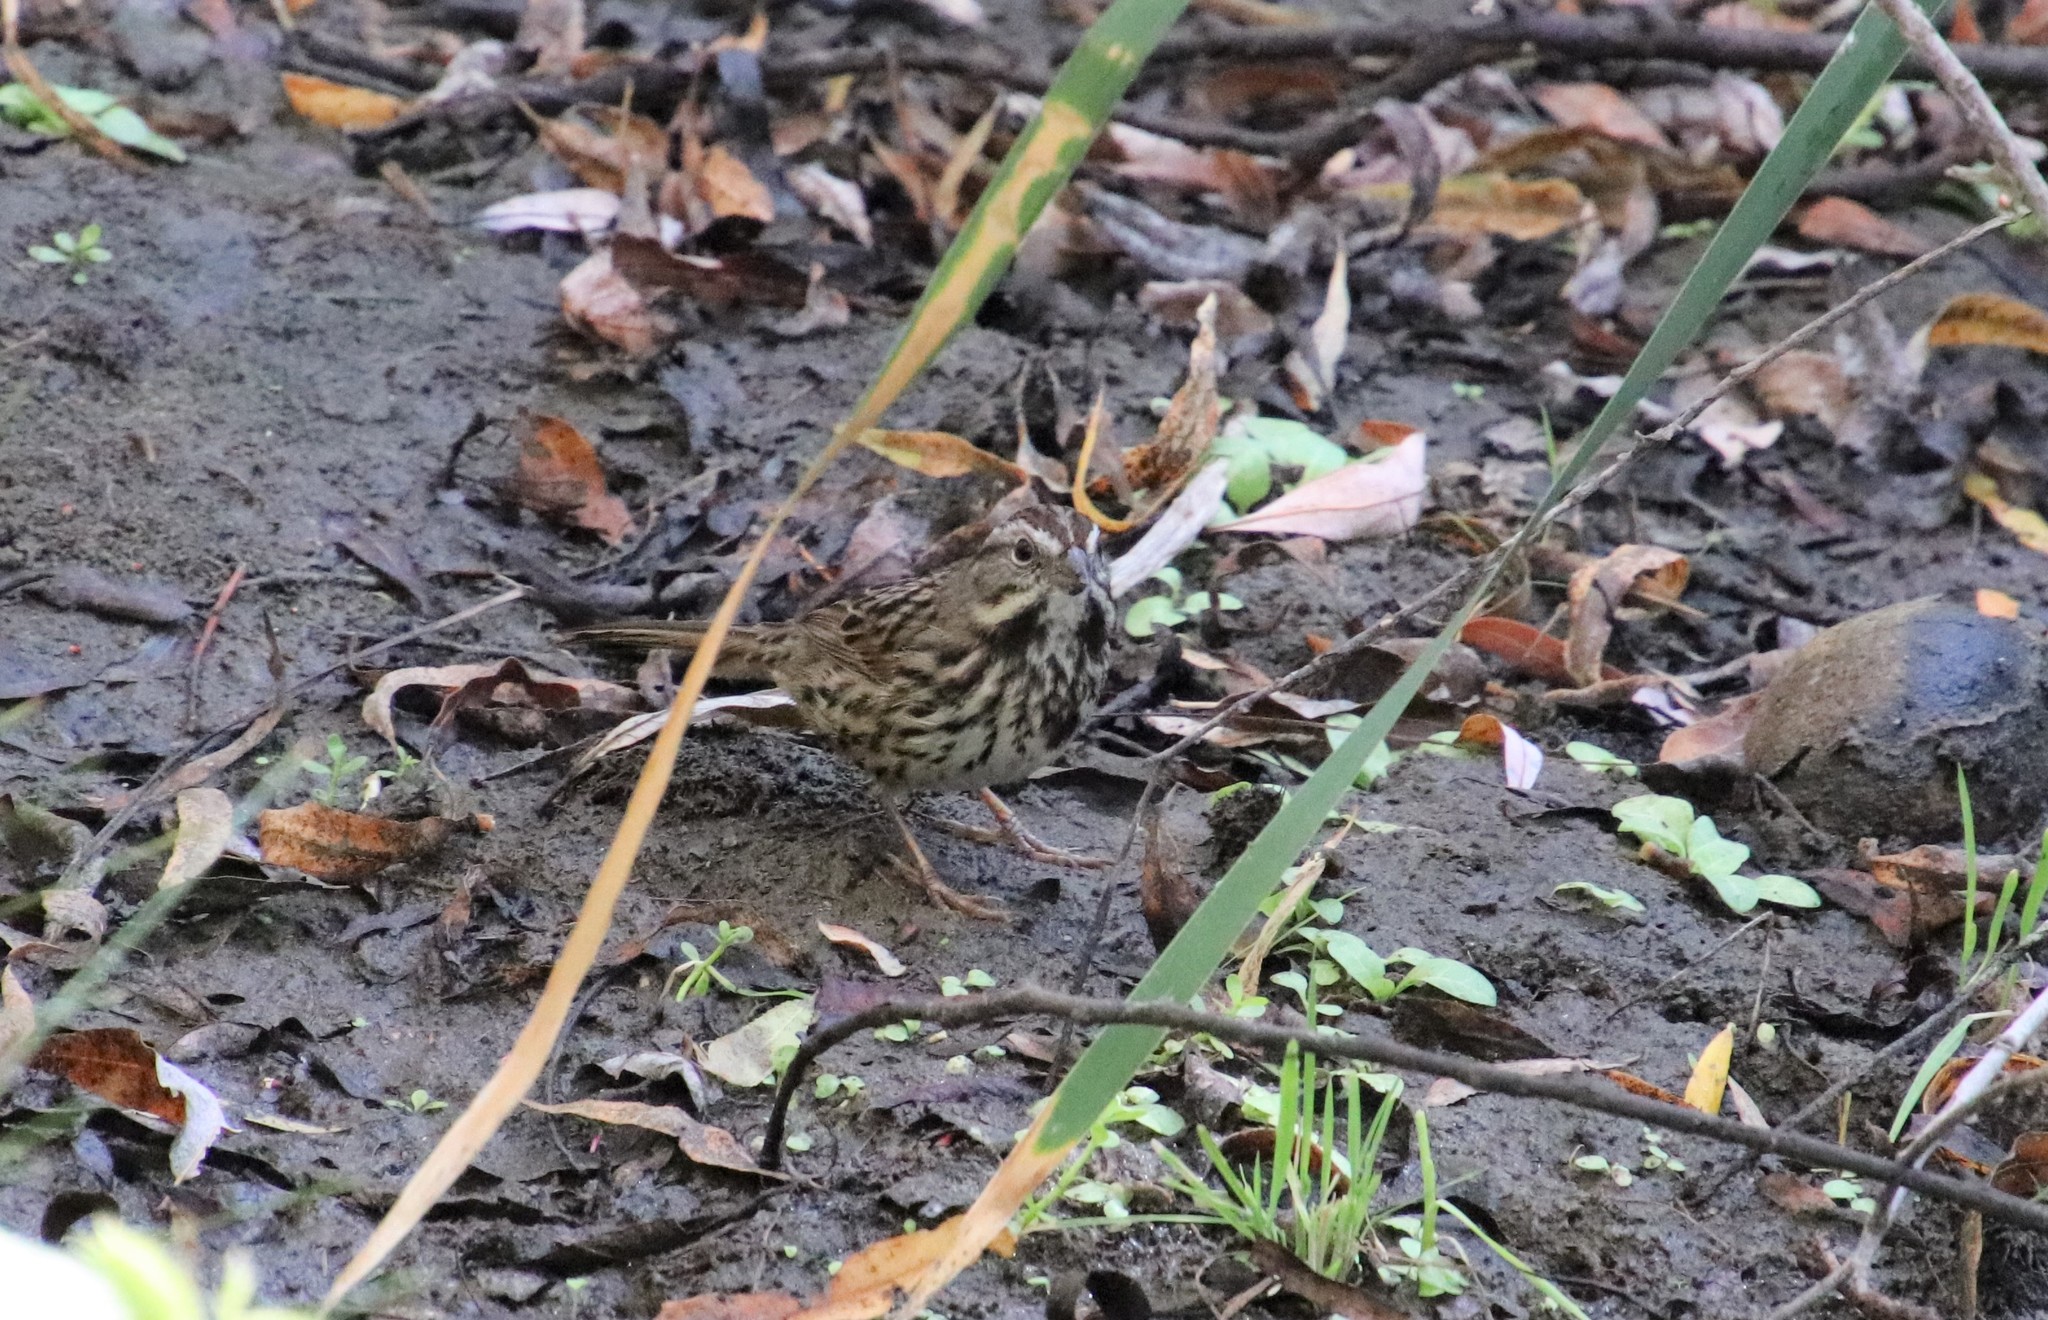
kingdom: Animalia
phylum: Chordata
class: Aves
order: Passeriformes
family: Passerellidae
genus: Melospiza
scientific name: Melospiza melodia
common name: Song sparrow
